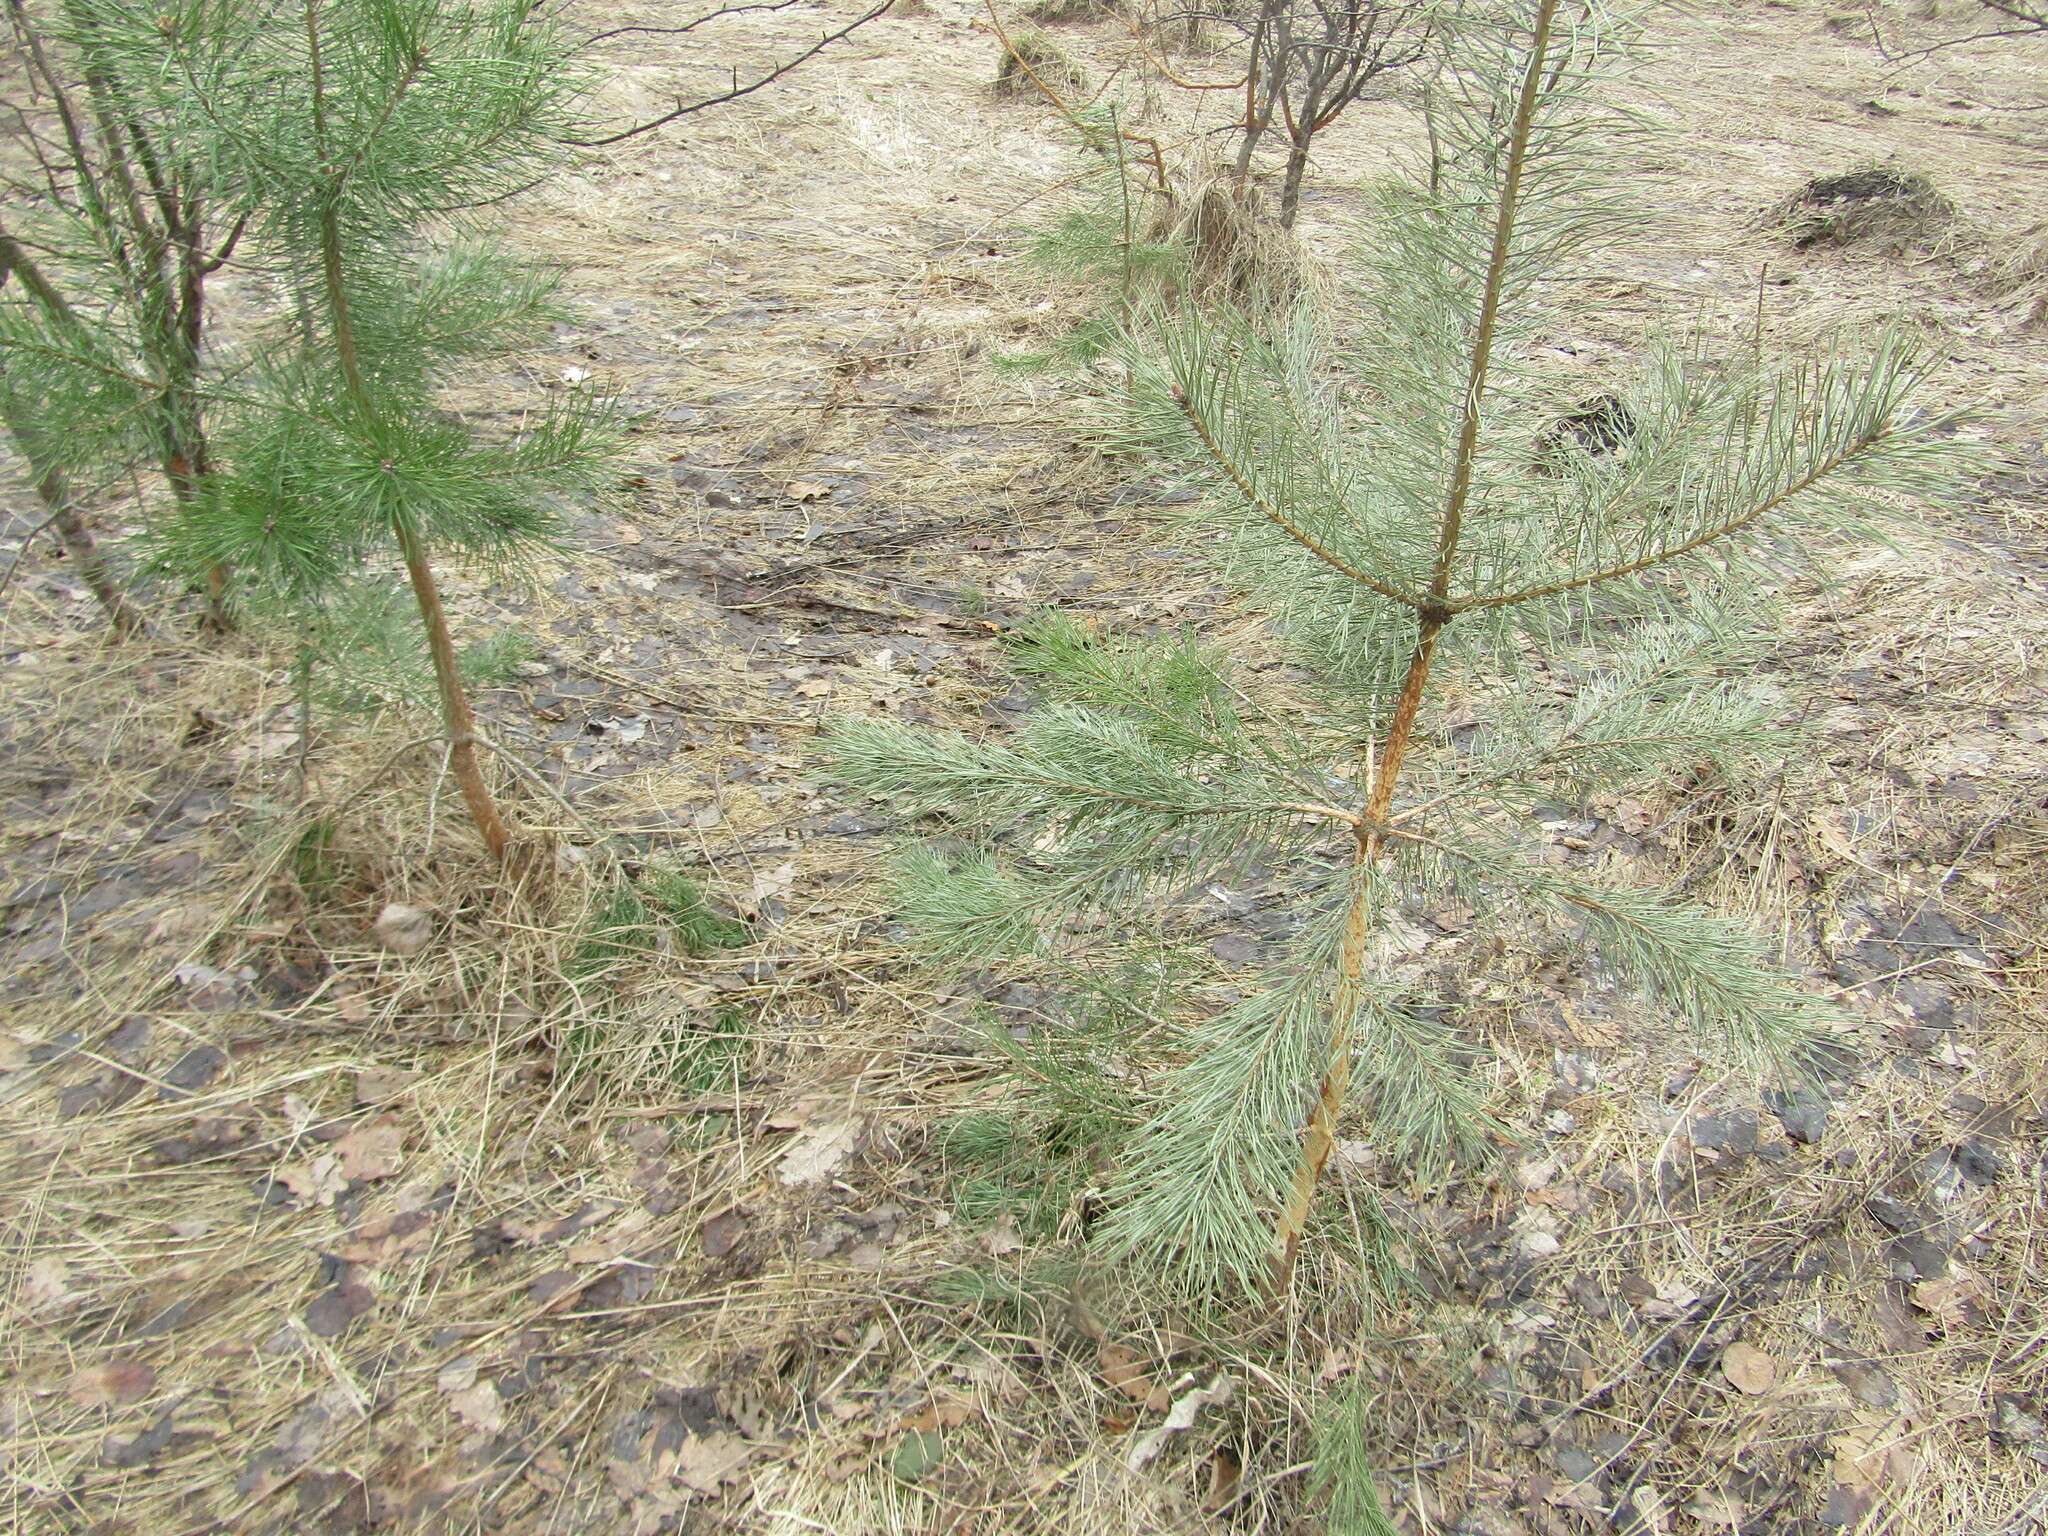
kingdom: Plantae
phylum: Tracheophyta
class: Pinopsida
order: Pinales
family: Pinaceae
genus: Pinus
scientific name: Pinus sylvestris
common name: Scots pine
